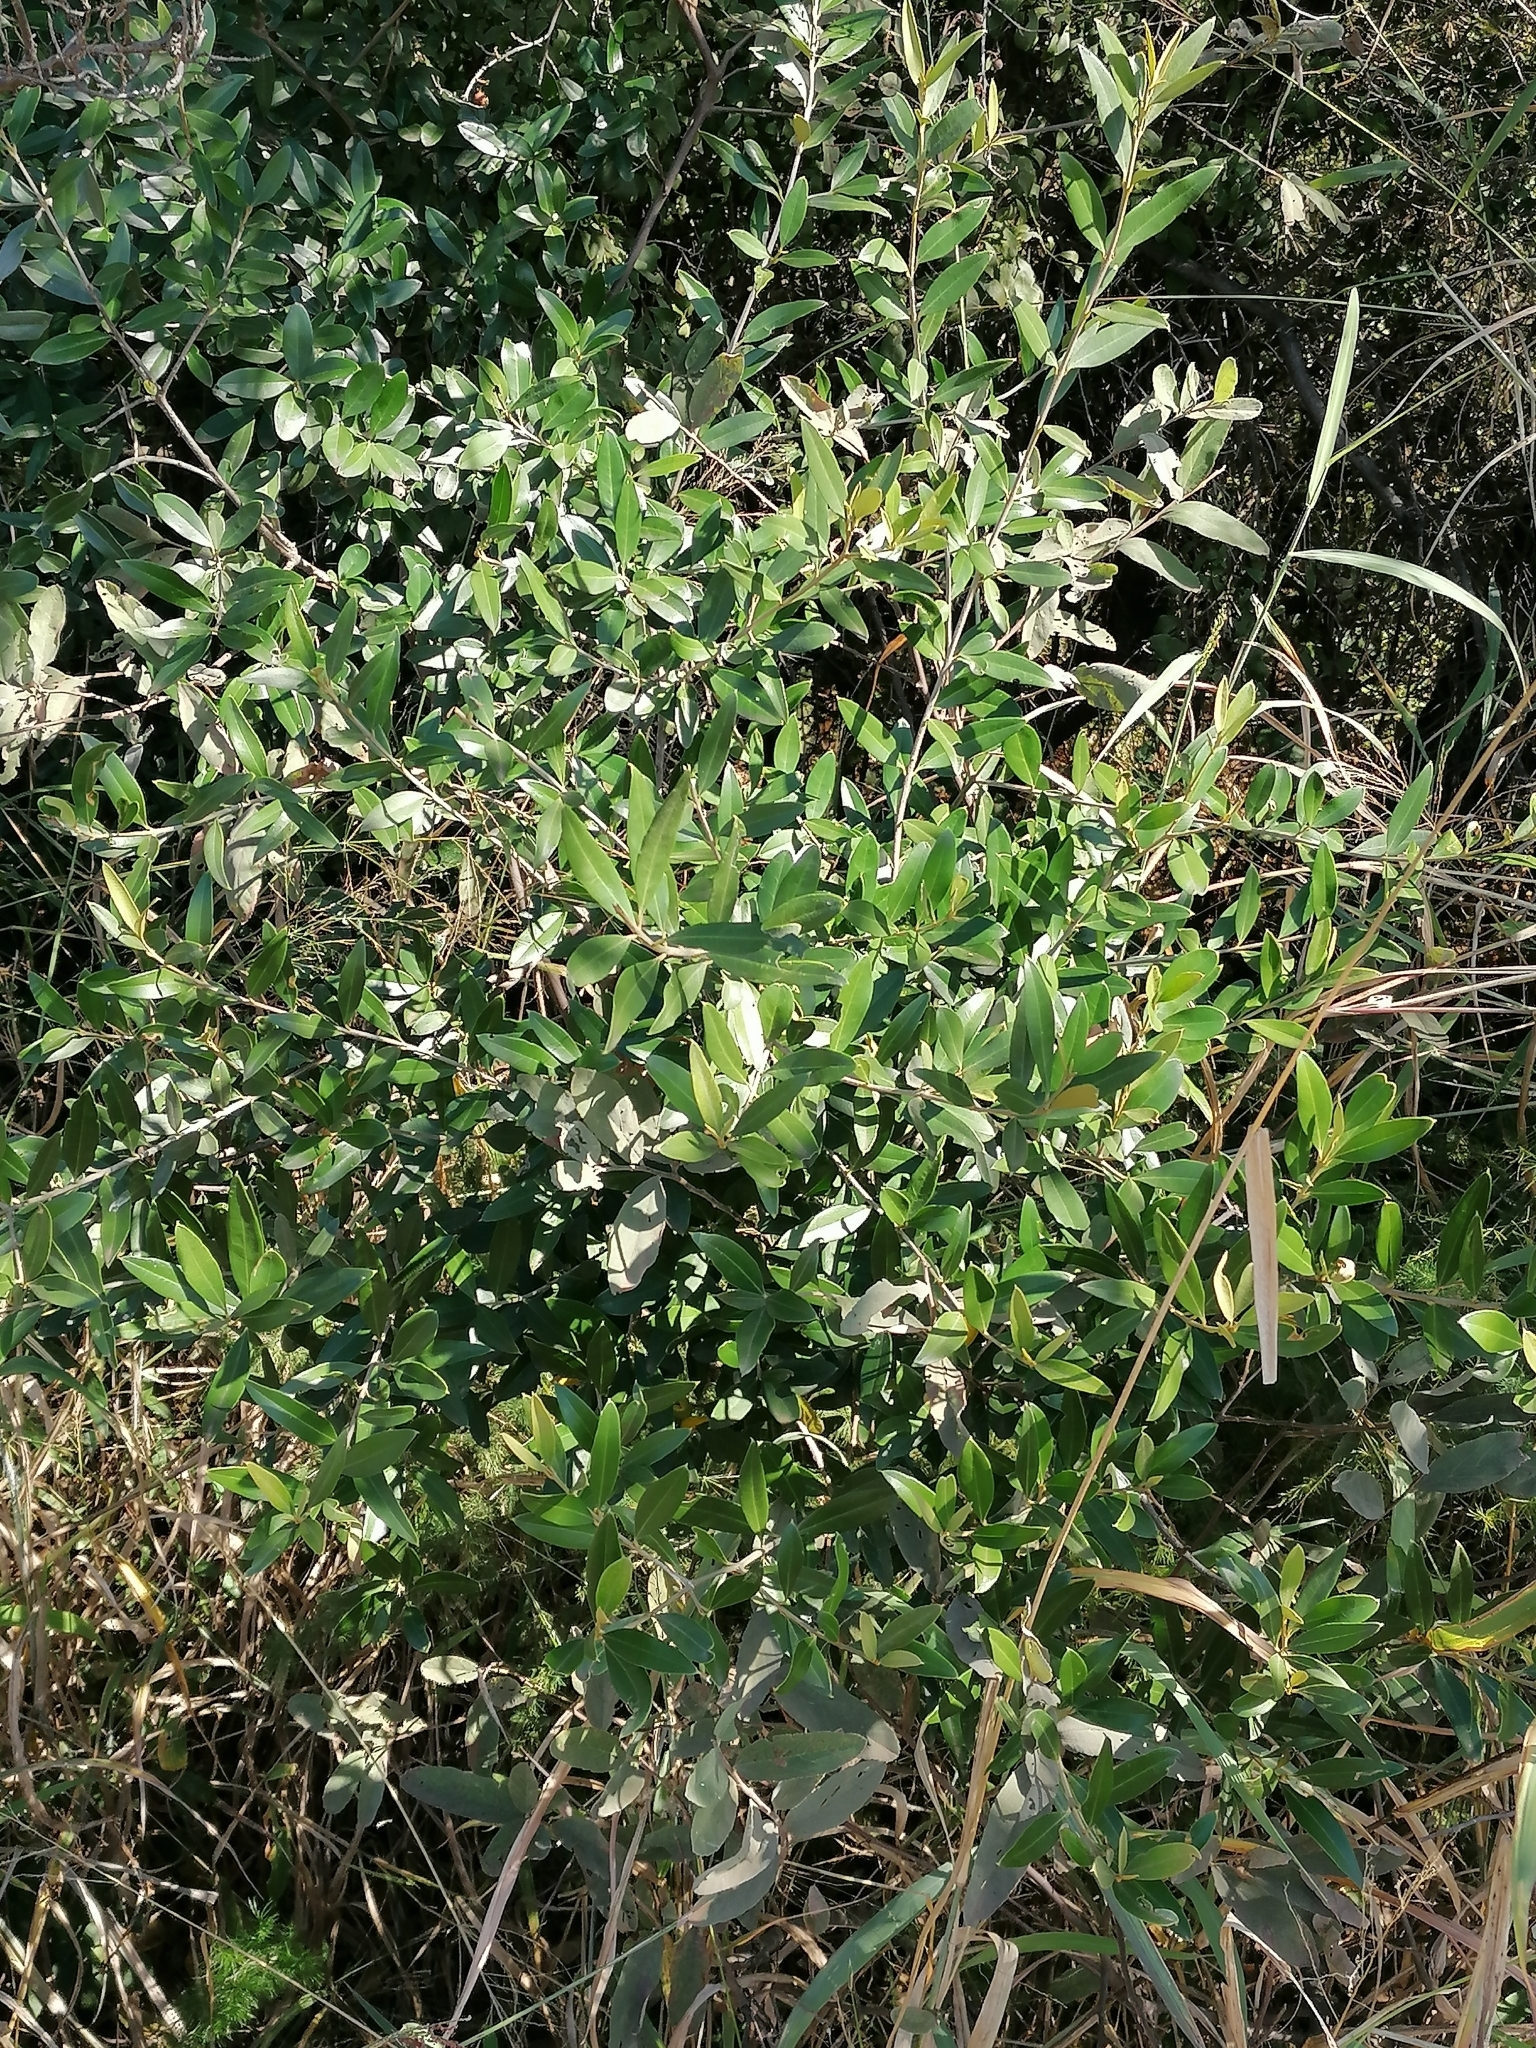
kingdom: Plantae
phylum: Tracheophyta
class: Magnoliopsida
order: Lamiales
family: Oleaceae
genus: Olea
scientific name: Olea europaea
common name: Olive
